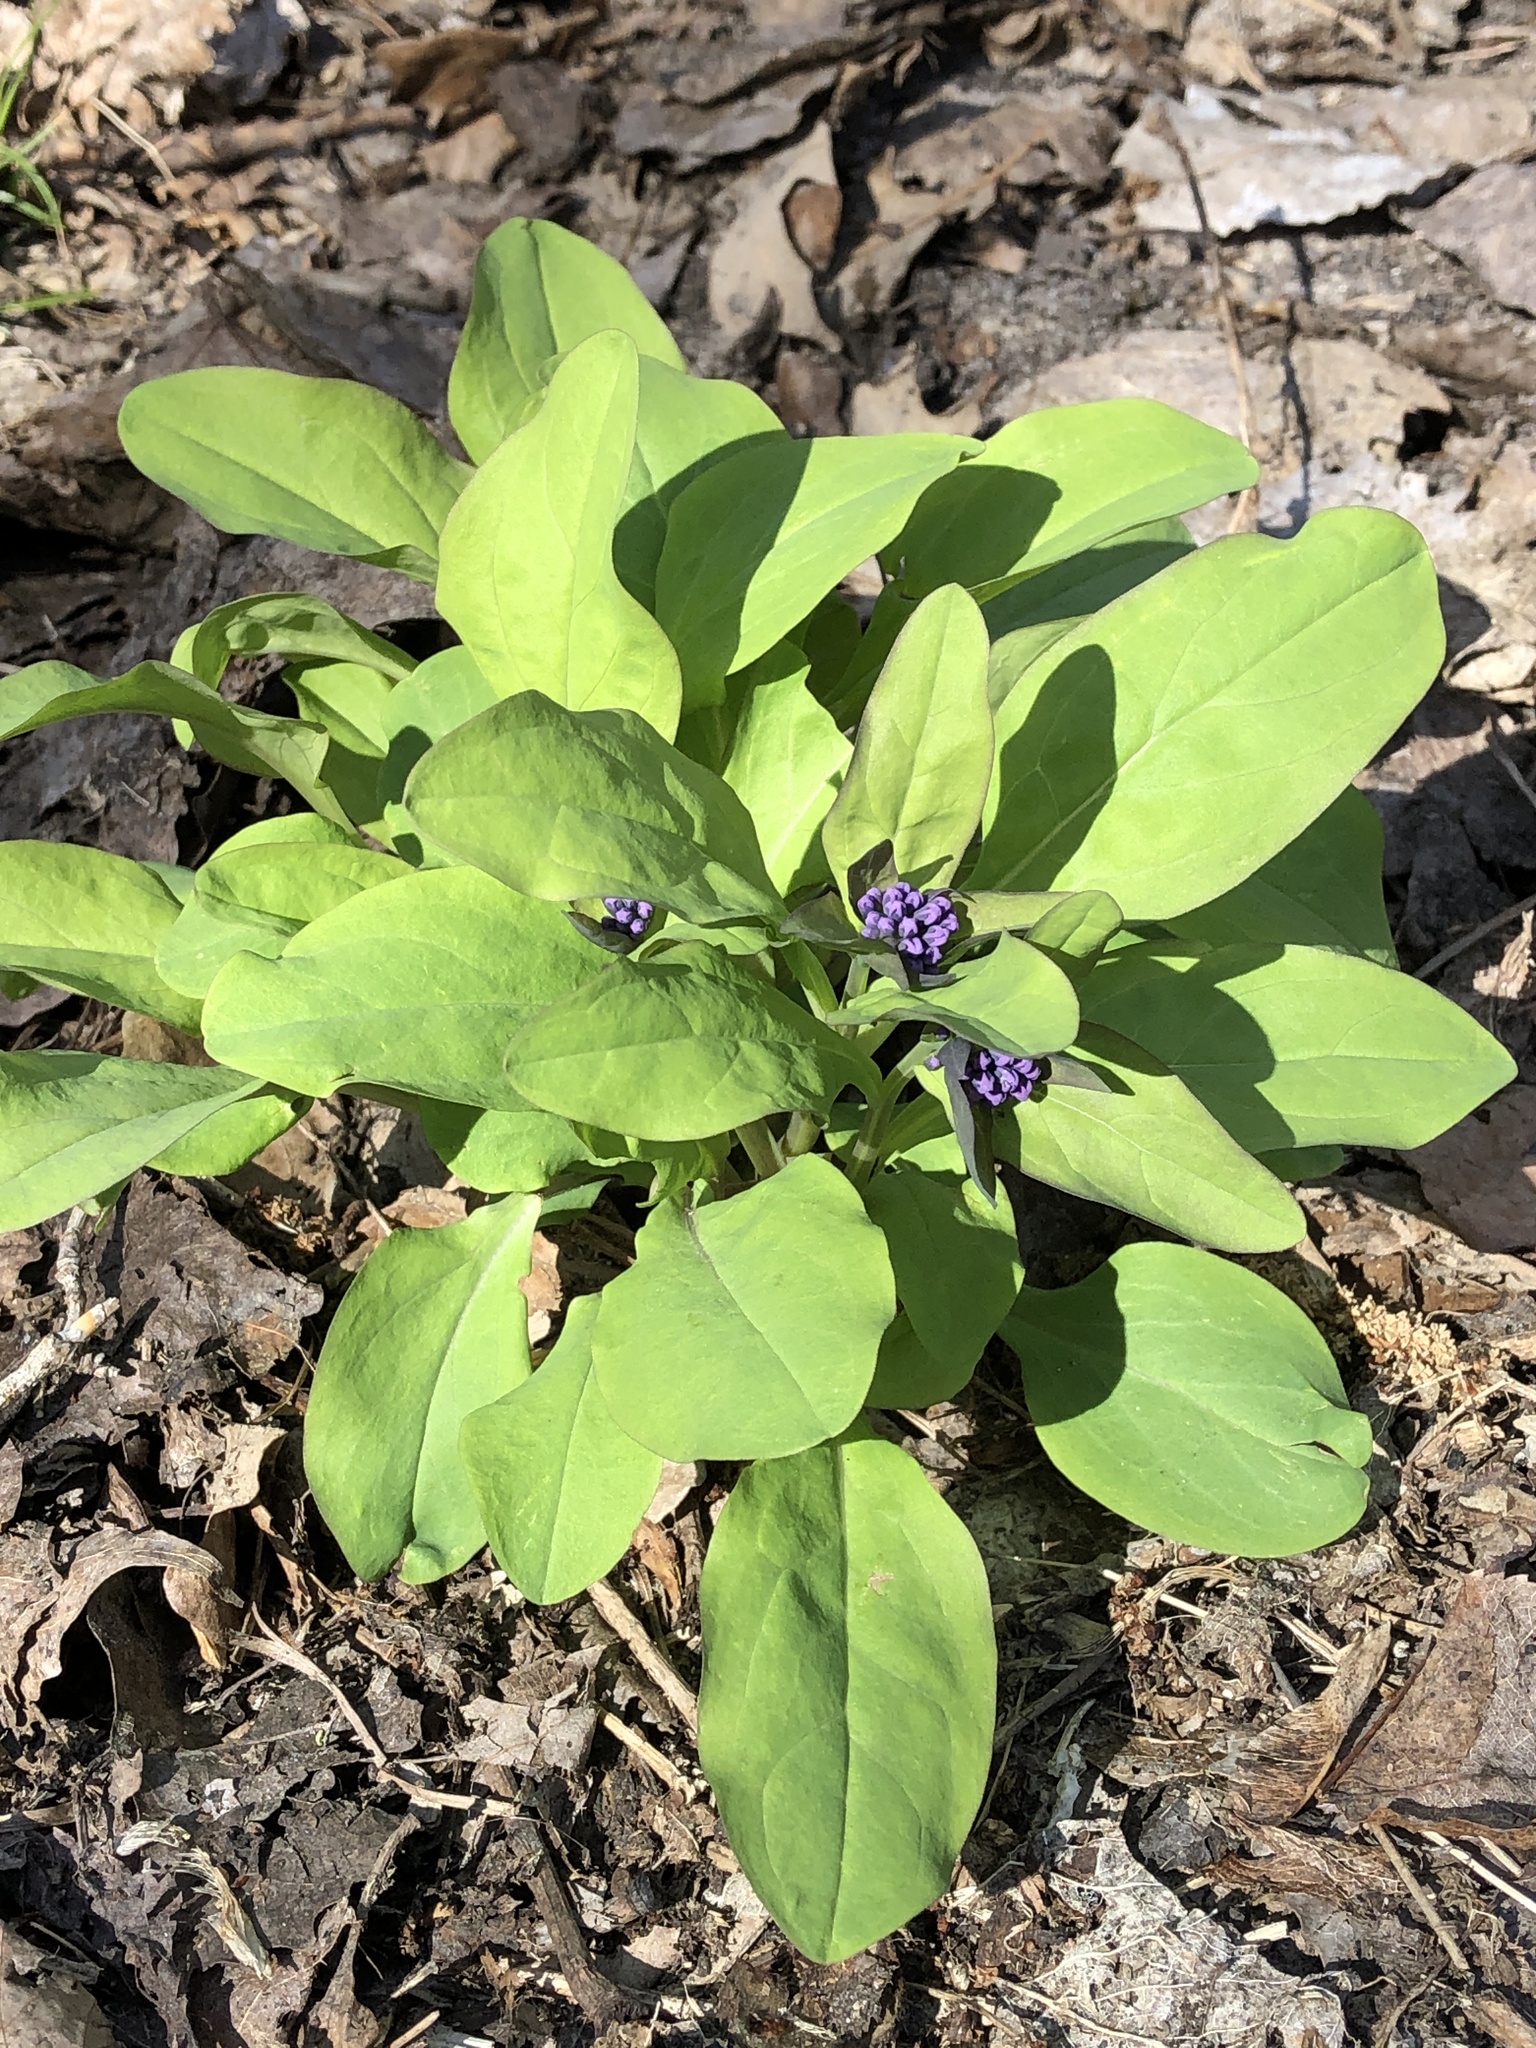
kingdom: Plantae
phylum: Tracheophyta
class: Magnoliopsida
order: Boraginales
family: Boraginaceae
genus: Mertensia
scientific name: Mertensia virginica
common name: Virginia bluebells
